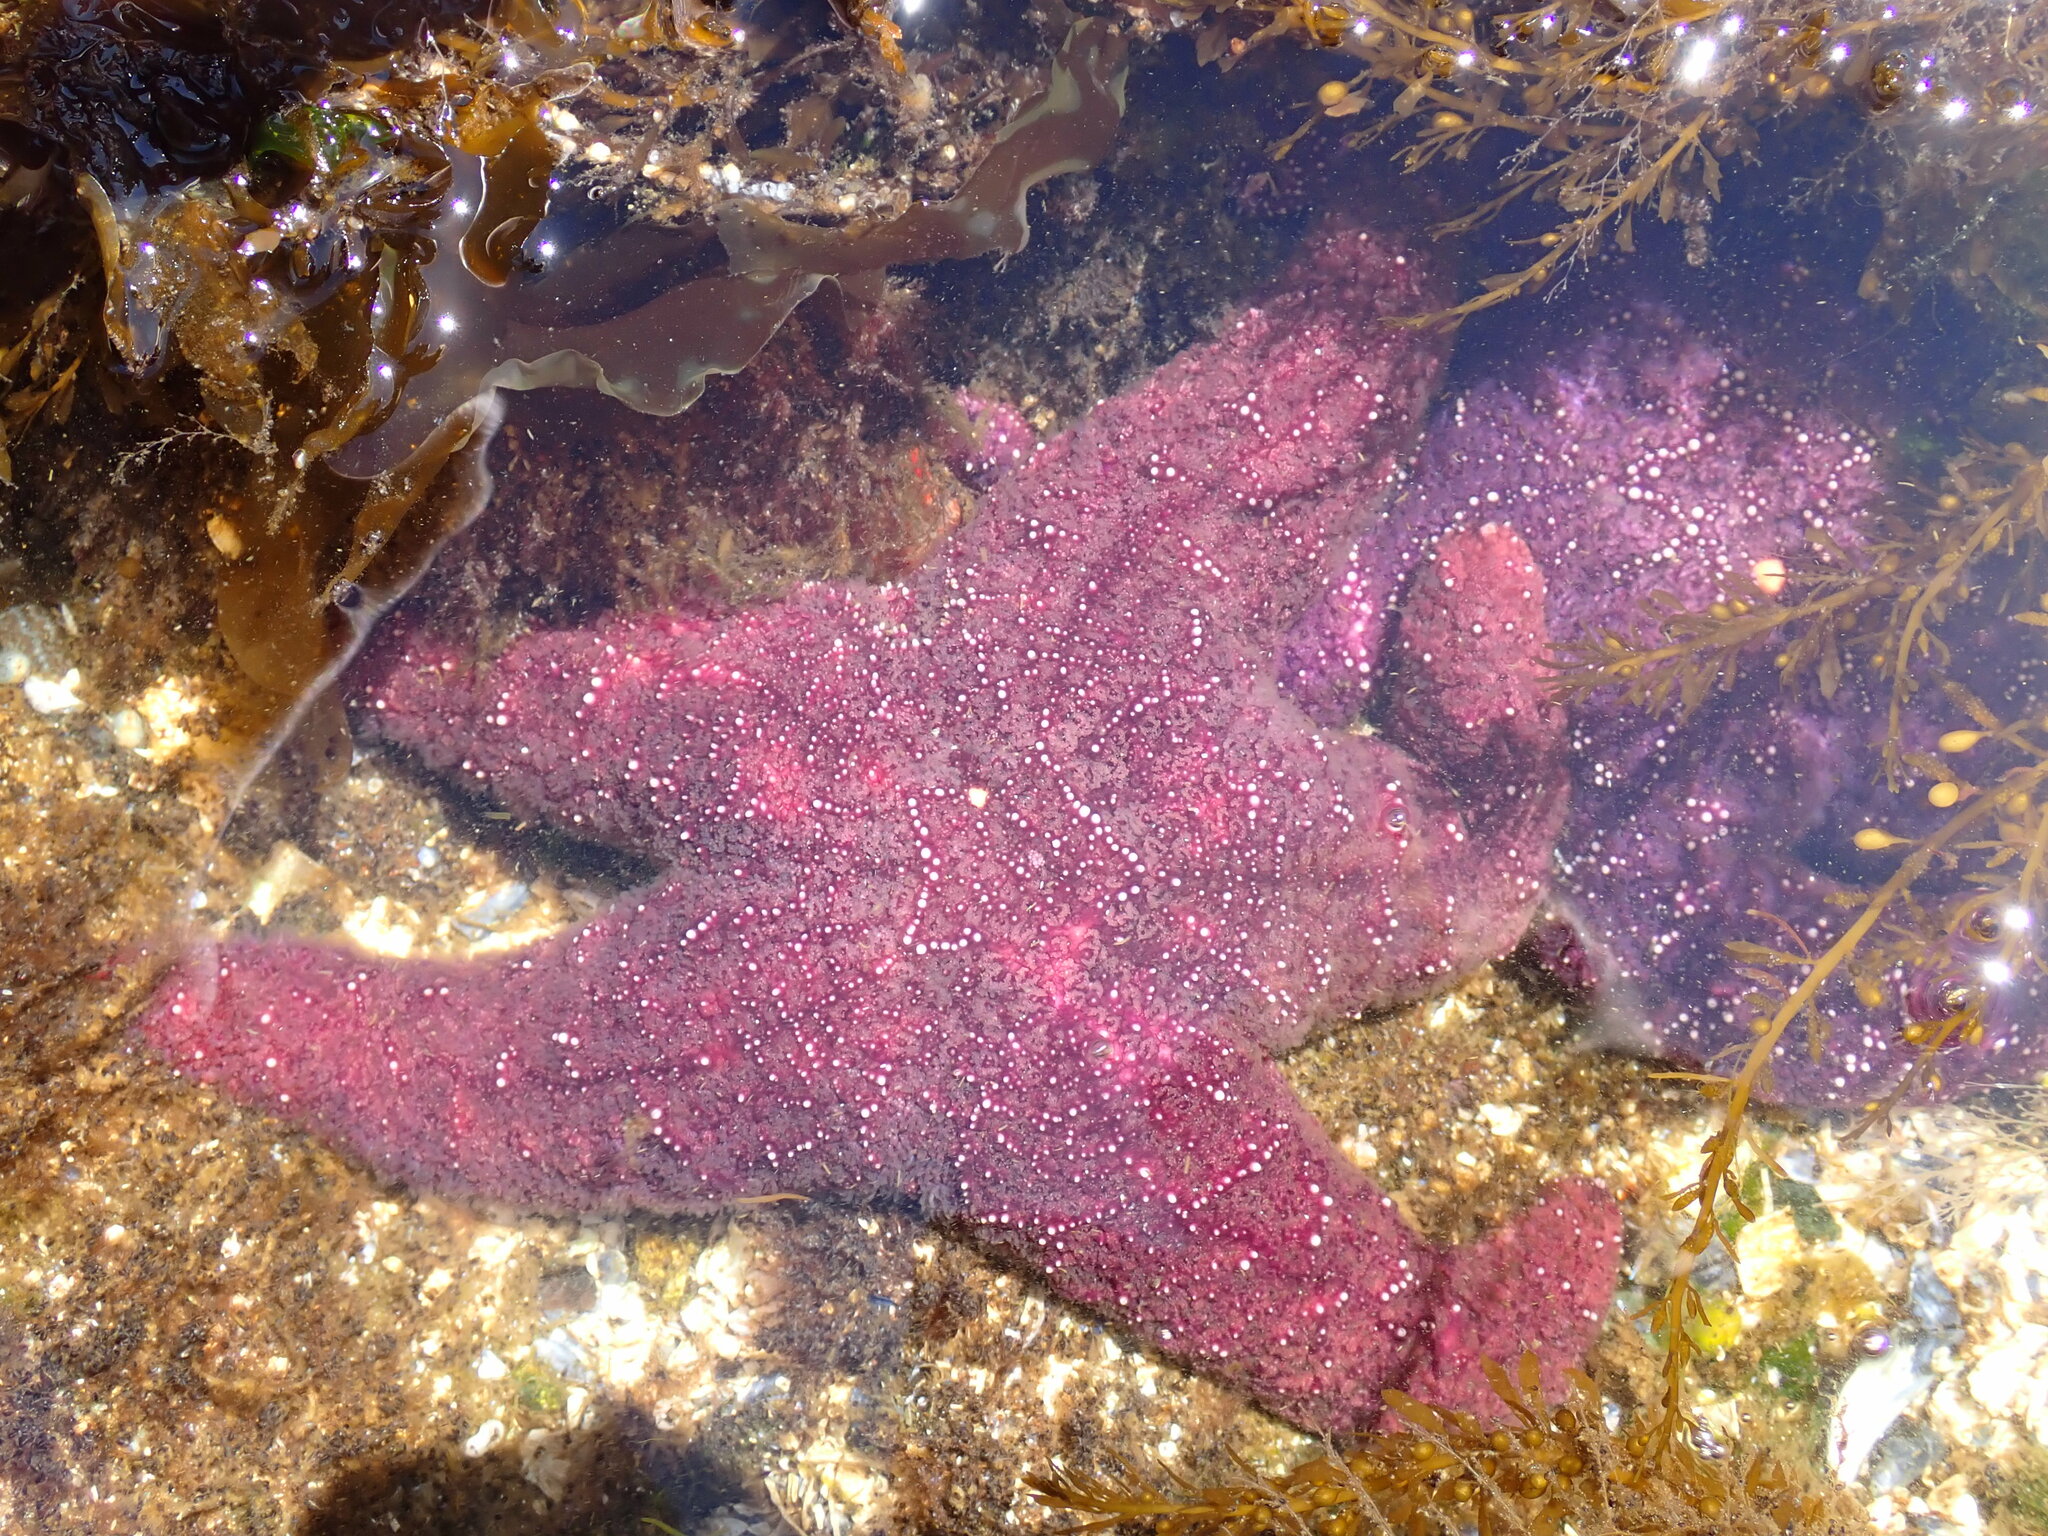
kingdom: Animalia
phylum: Echinodermata
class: Asteroidea
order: Forcipulatida
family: Asteriidae
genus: Pisaster
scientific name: Pisaster ochraceus
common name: Ochre stars
